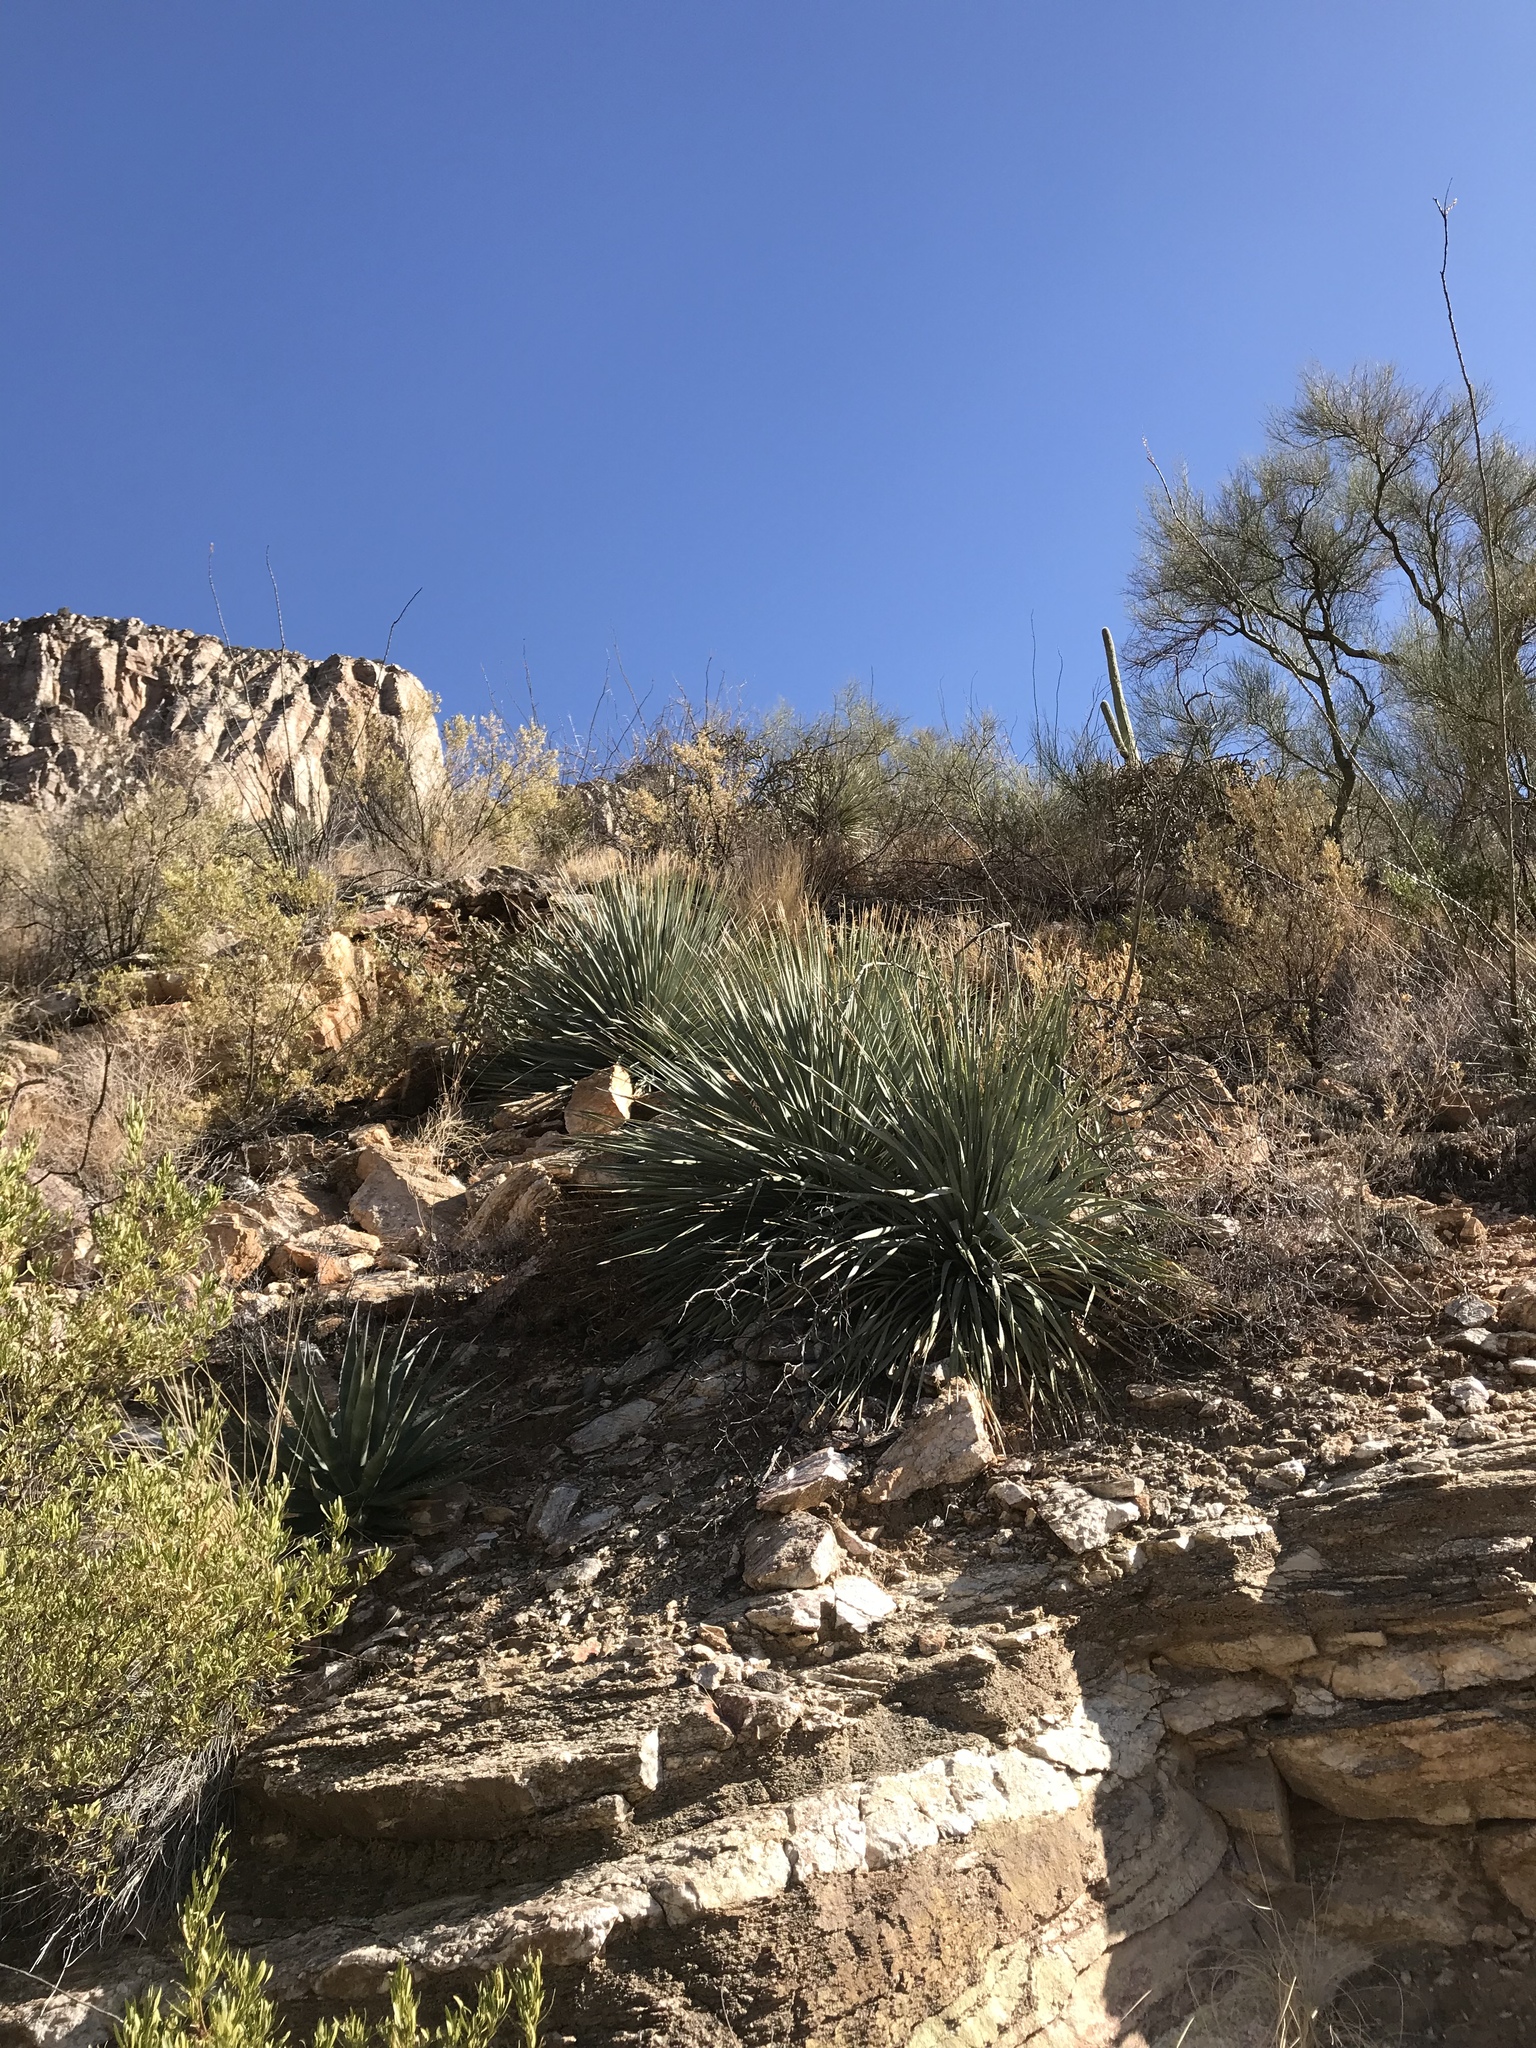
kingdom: Plantae
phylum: Tracheophyta
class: Liliopsida
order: Asparagales
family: Asparagaceae
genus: Dasylirion
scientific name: Dasylirion wheeleri
